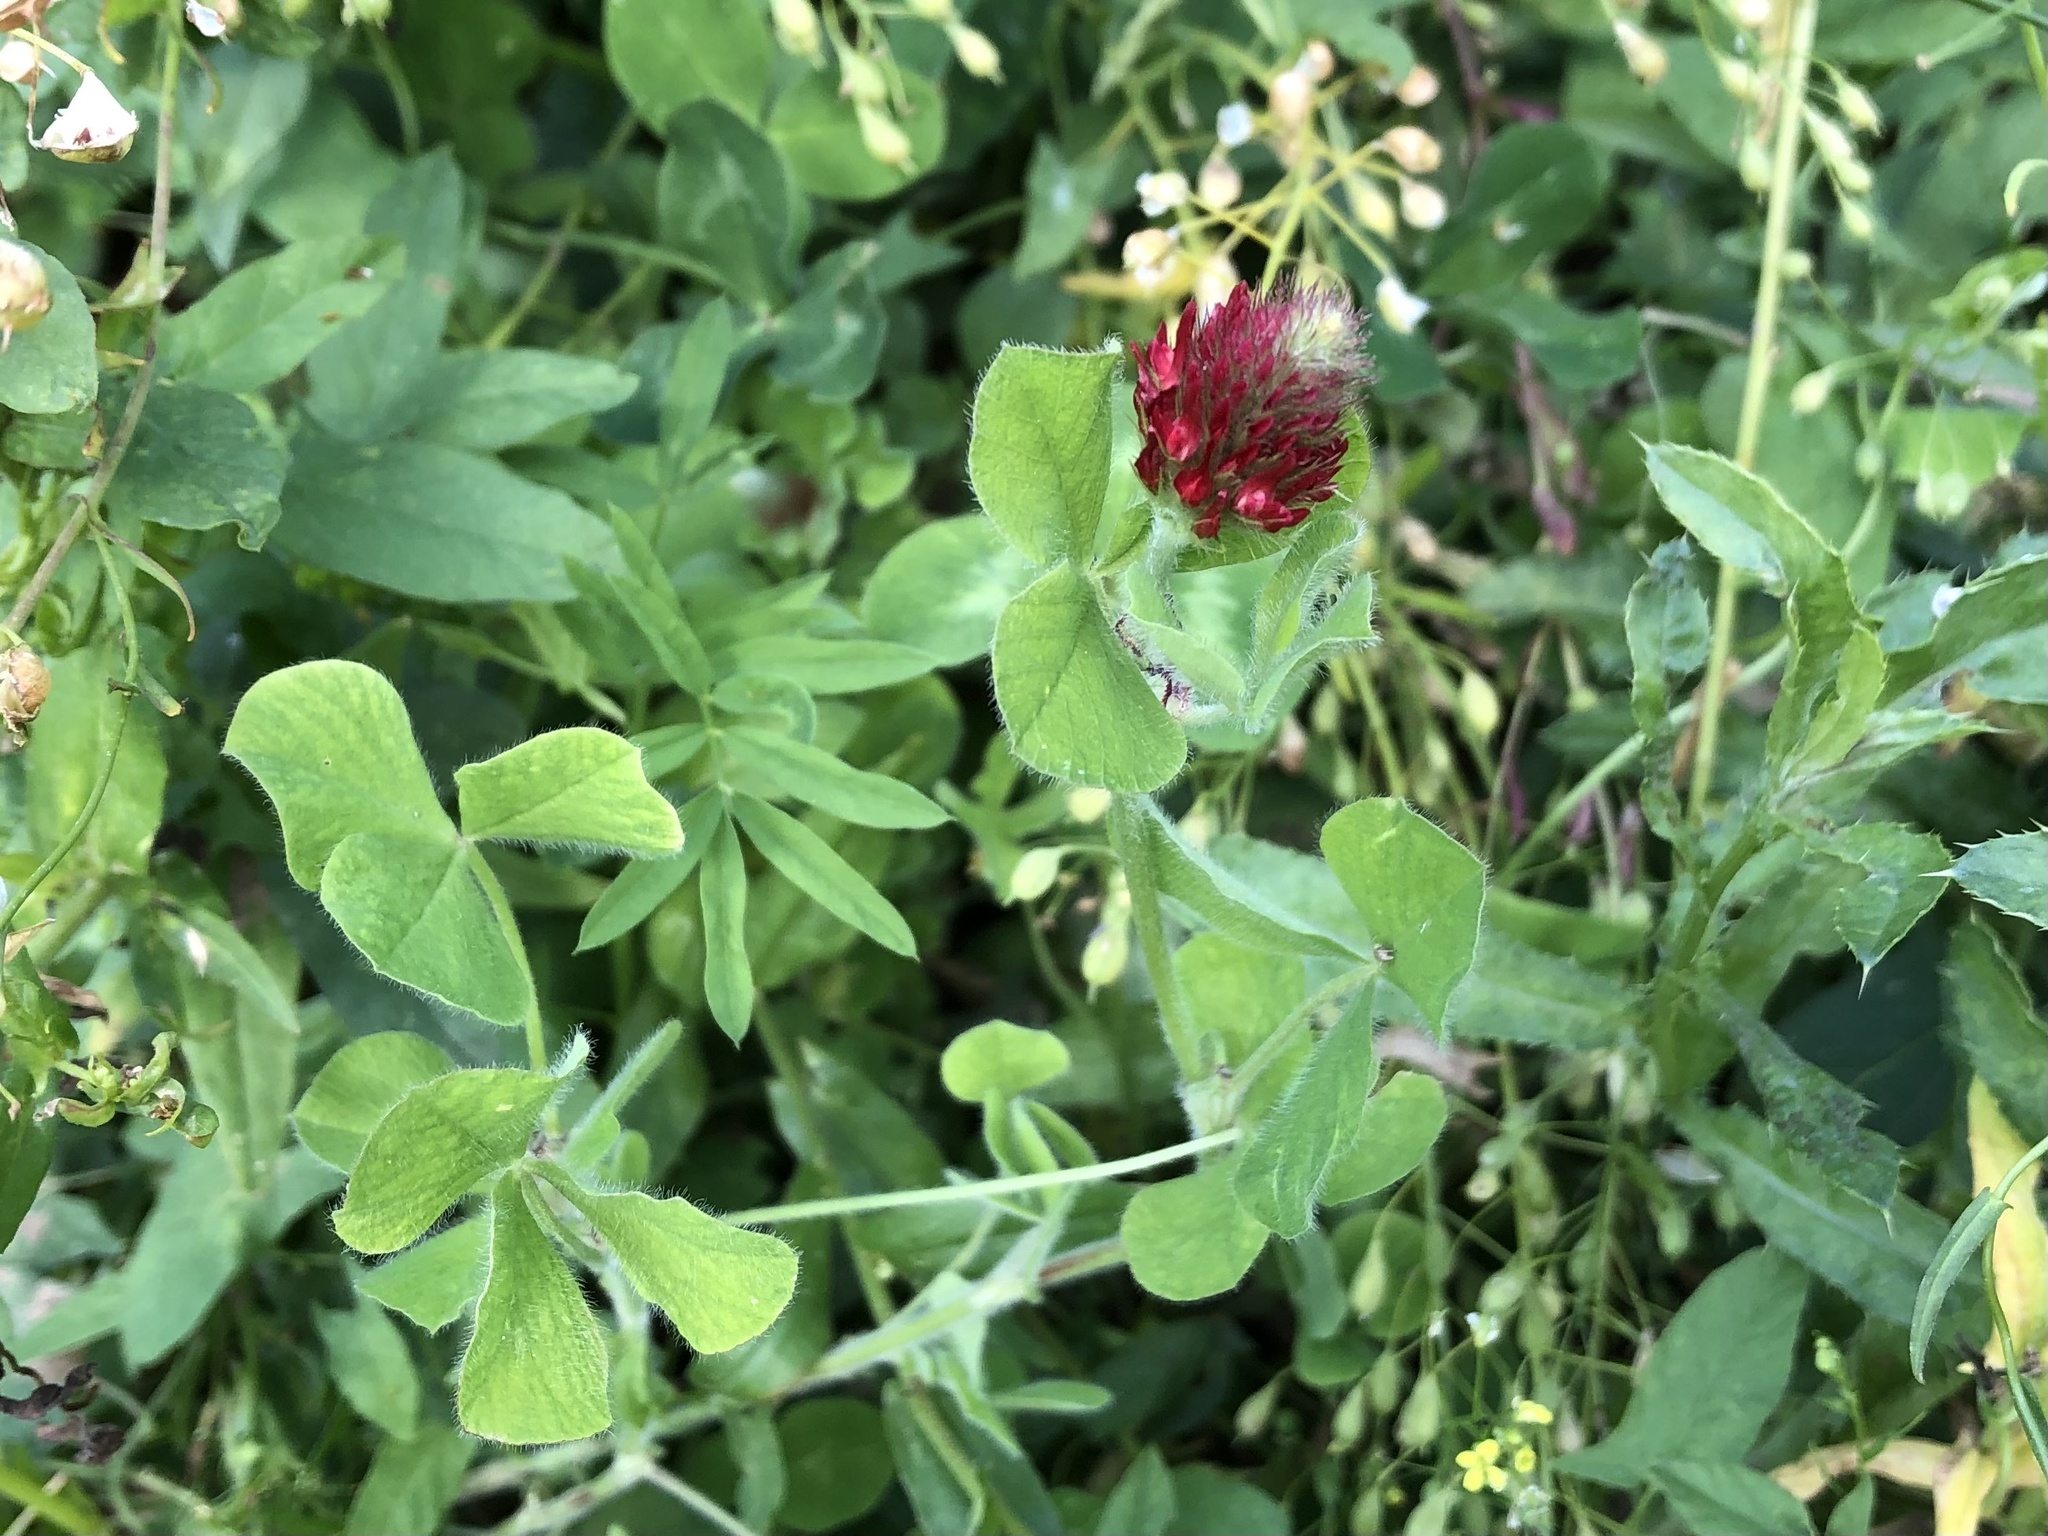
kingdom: Plantae
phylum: Tracheophyta
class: Magnoliopsida
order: Fabales
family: Fabaceae
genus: Trifolium
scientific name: Trifolium incarnatum
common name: Crimson clover
